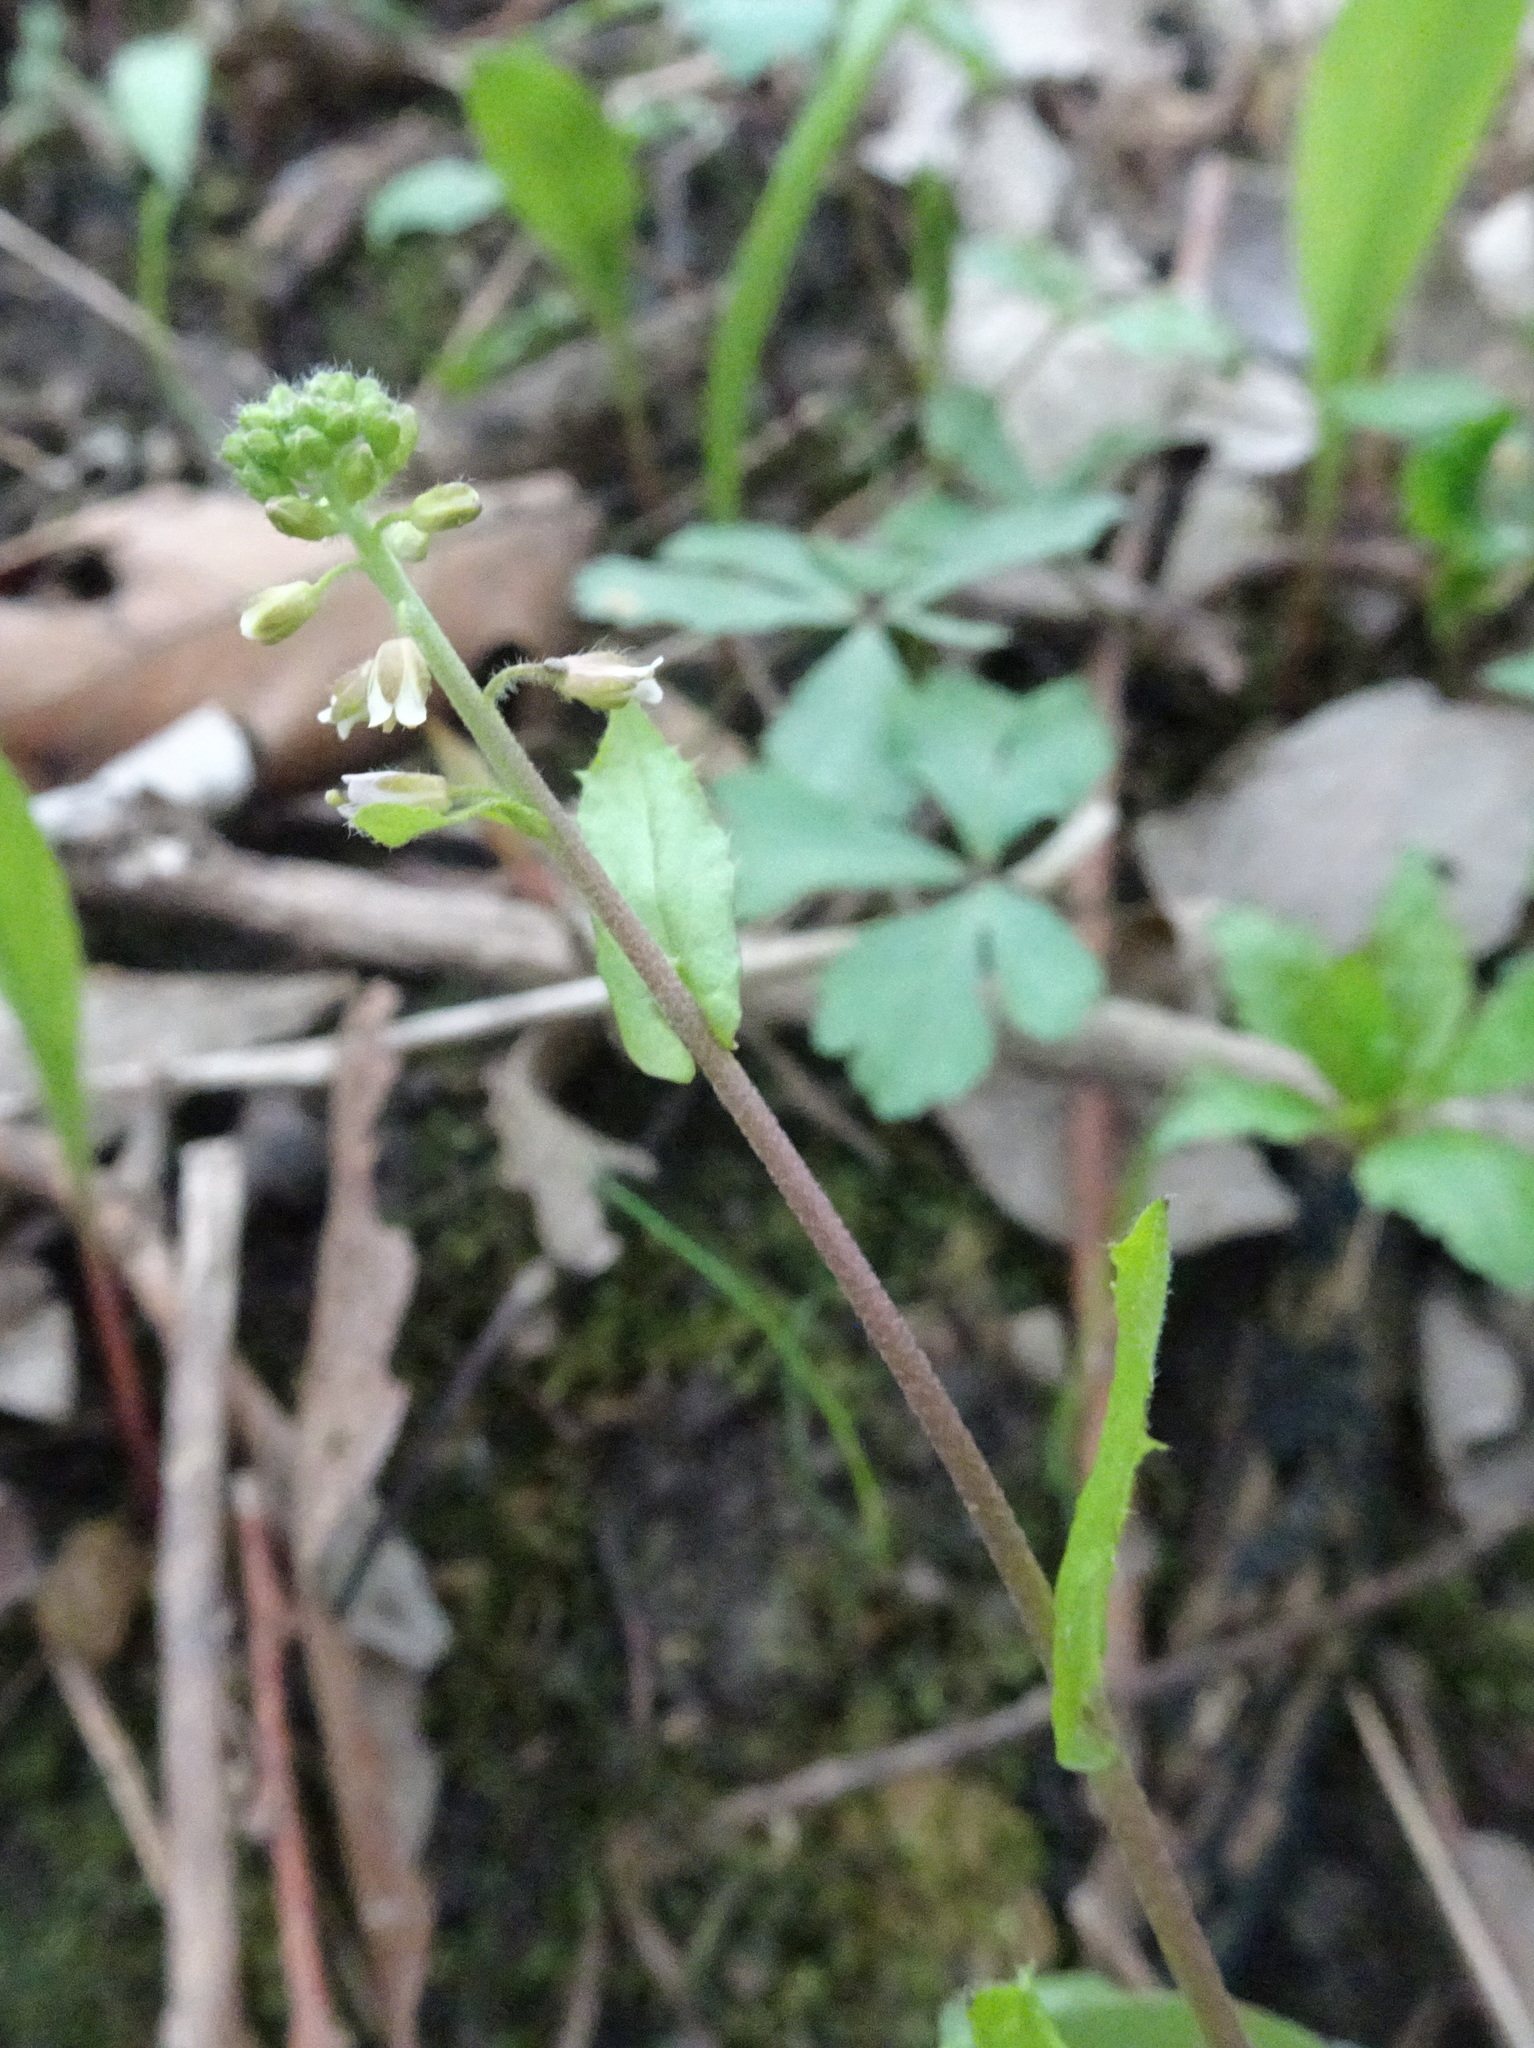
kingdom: Plantae
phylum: Tracheophyta
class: Magnoliopsida
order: Brassicales
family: Brassicaceae
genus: Borodinia
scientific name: Borodinia dentata
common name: Short's rockcress
